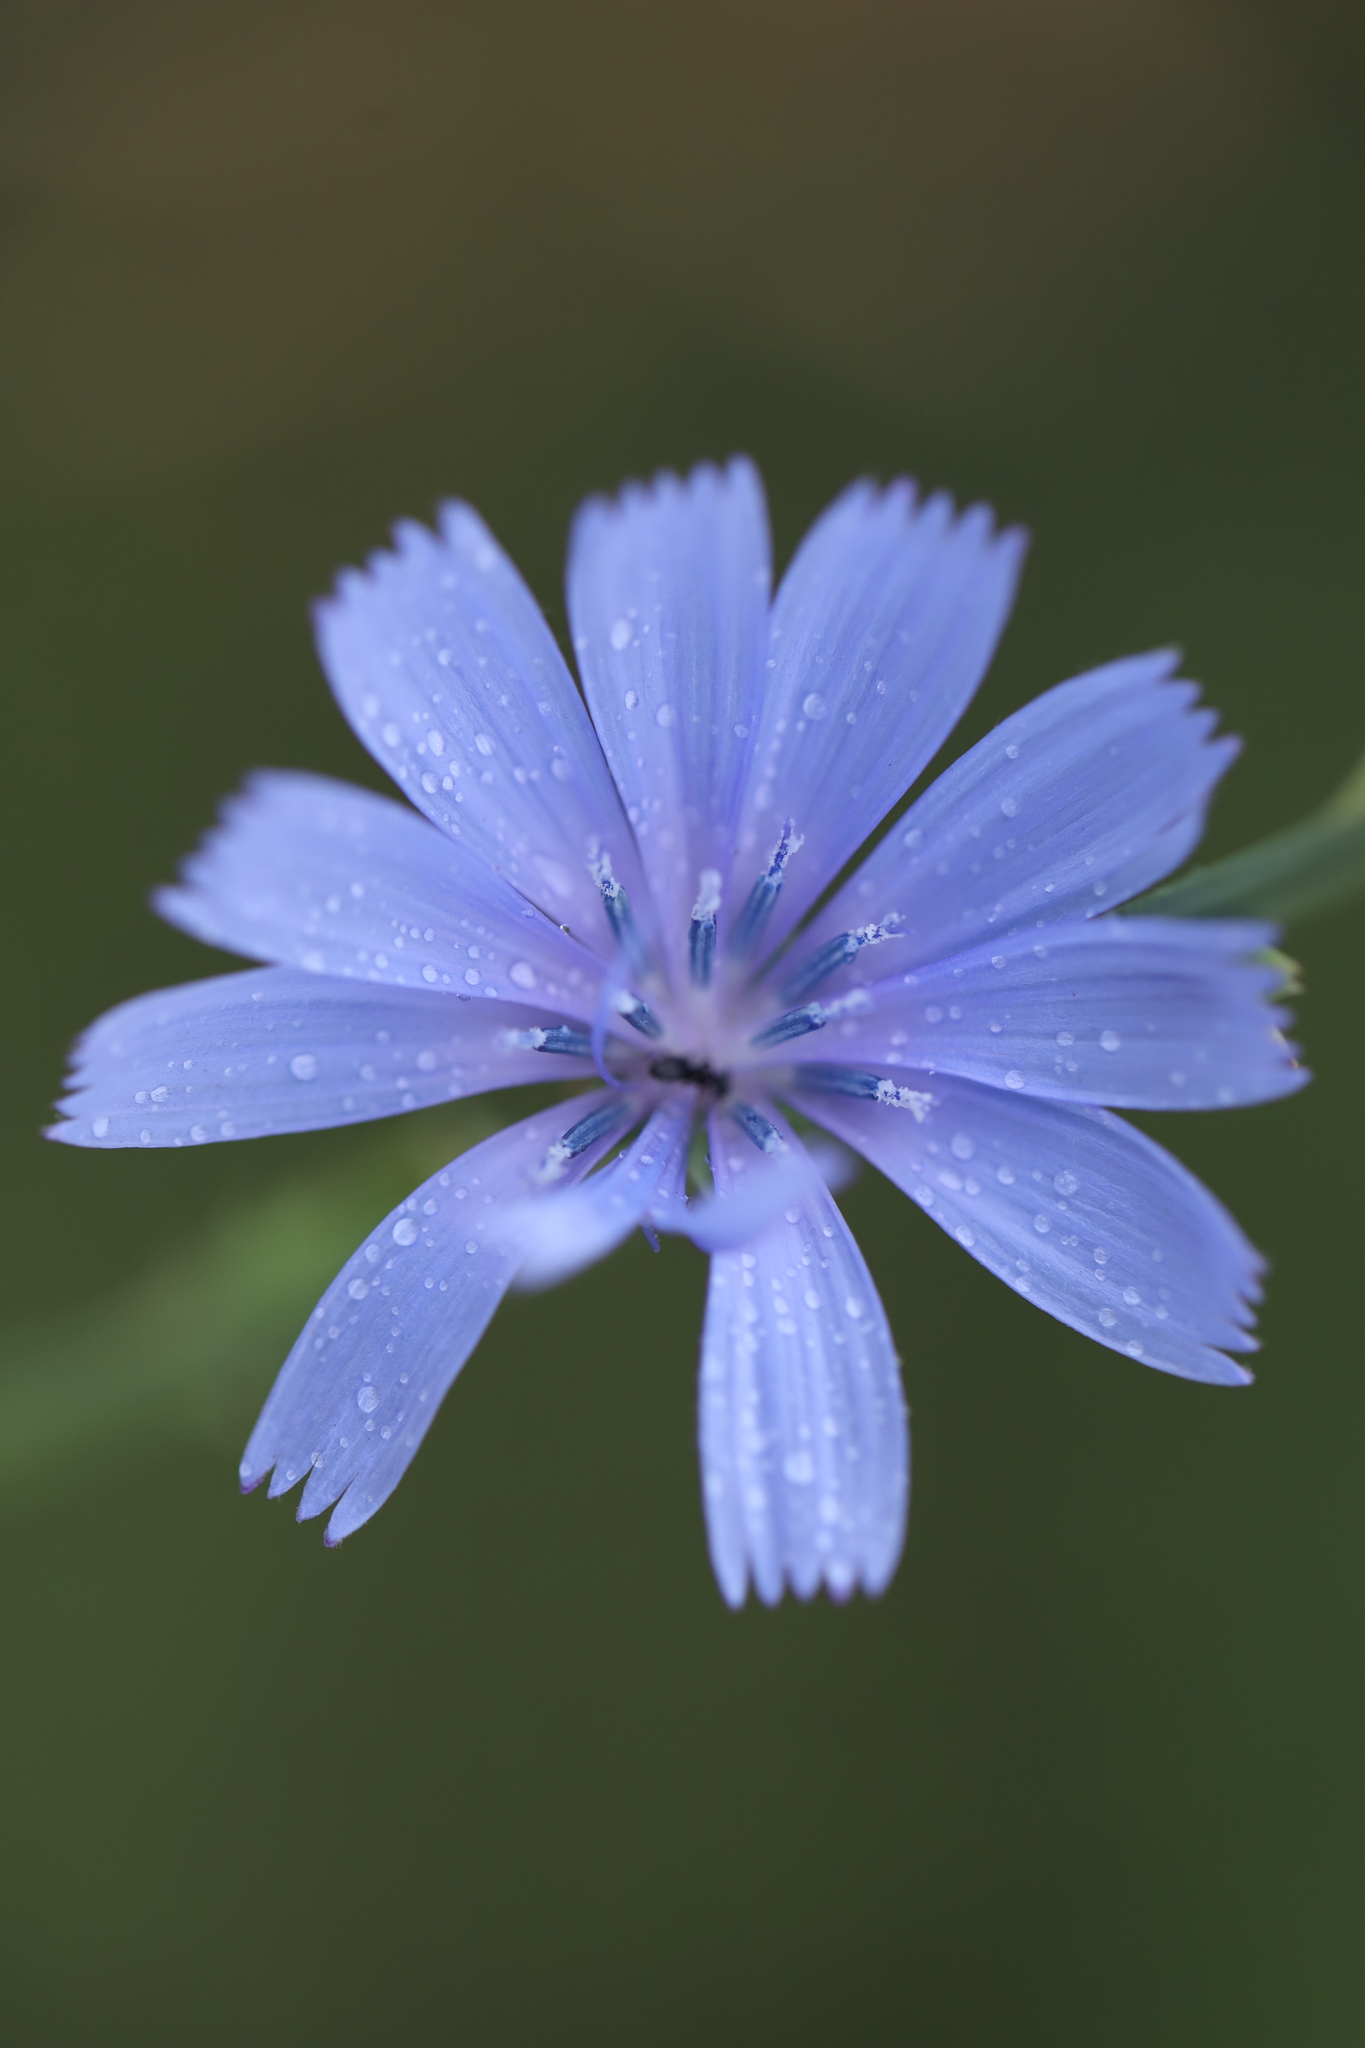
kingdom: Plantae
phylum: Tracheophyta
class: Magnoliopsida
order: Asterales
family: Asteraceae
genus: Cichorium
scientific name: Cichorium intybus
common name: Chicory
